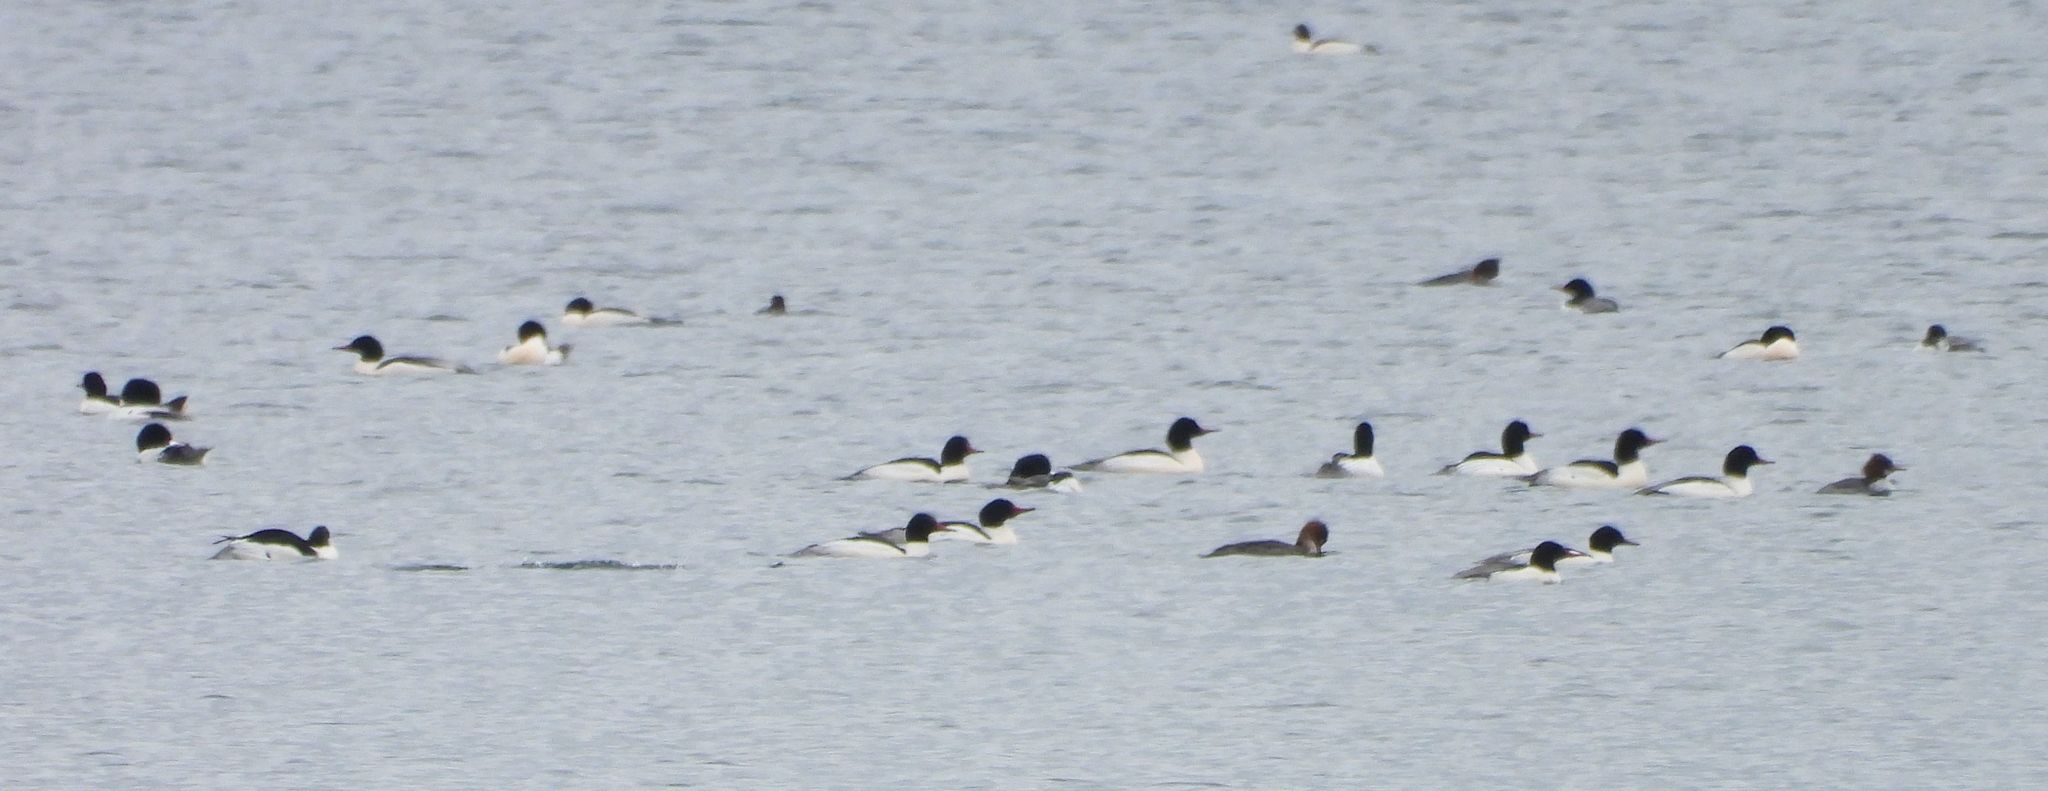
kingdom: Animalia
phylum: Chordata
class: Aves
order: Anseriformes
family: Anatidae
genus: Mergus
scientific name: Mergus merganser
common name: Common merganser
